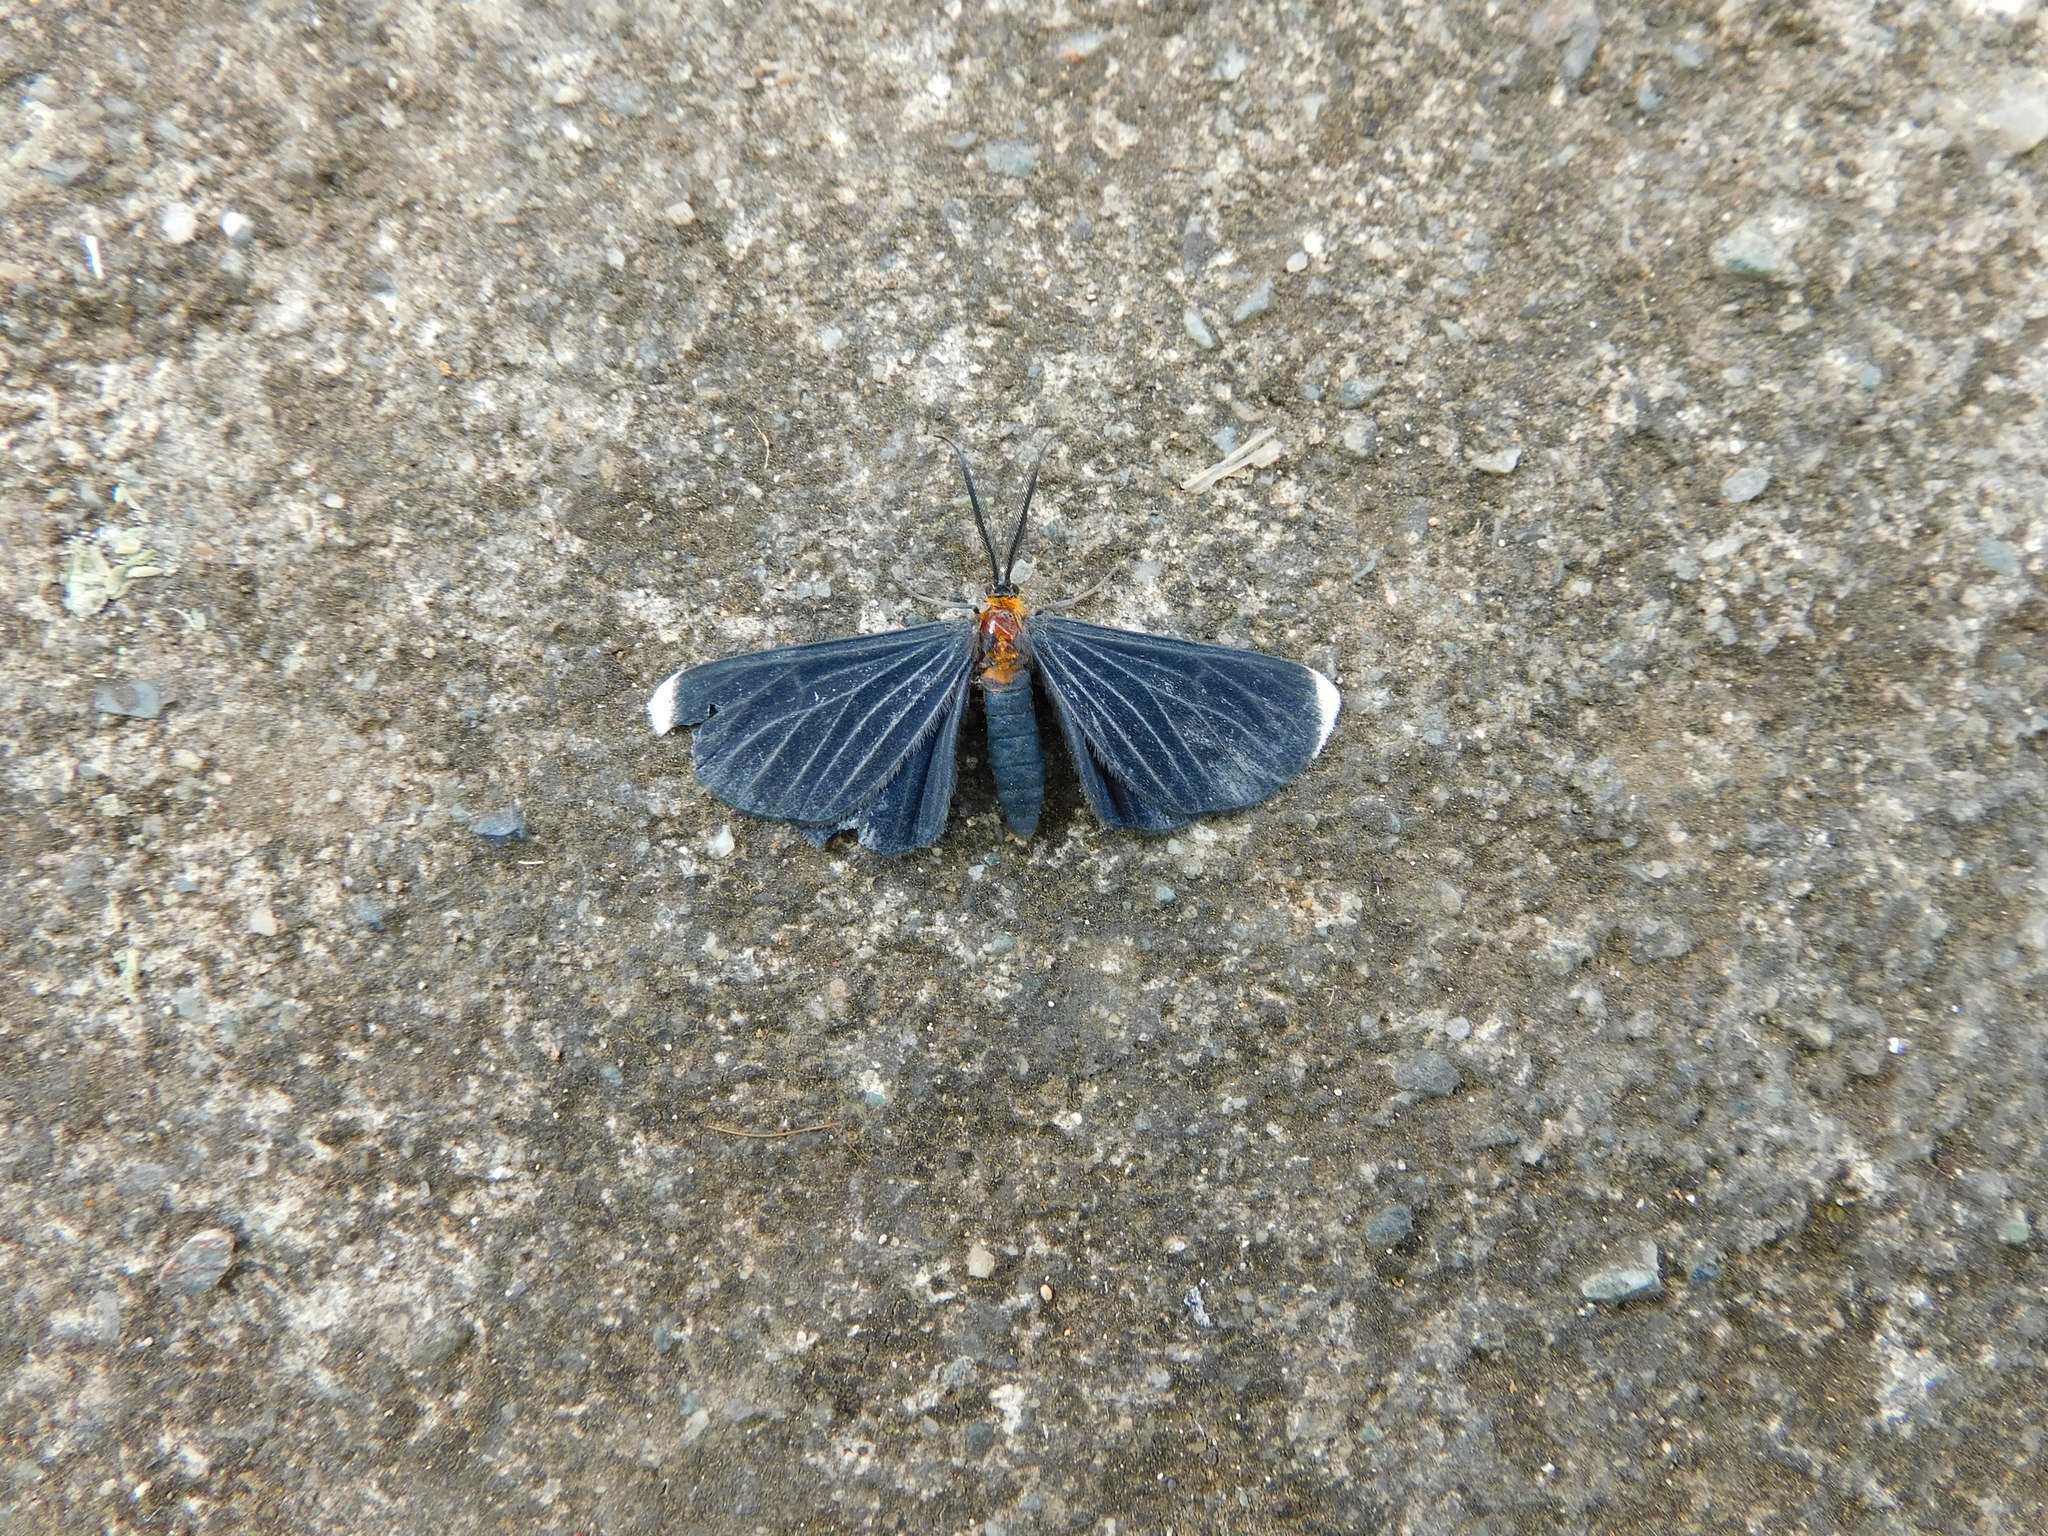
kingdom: Animalia
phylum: Arthropoda
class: Insecta
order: Lepidoptera
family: Geometridae
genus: Melanchroia
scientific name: Melanchroia chephise
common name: White-tipped black
